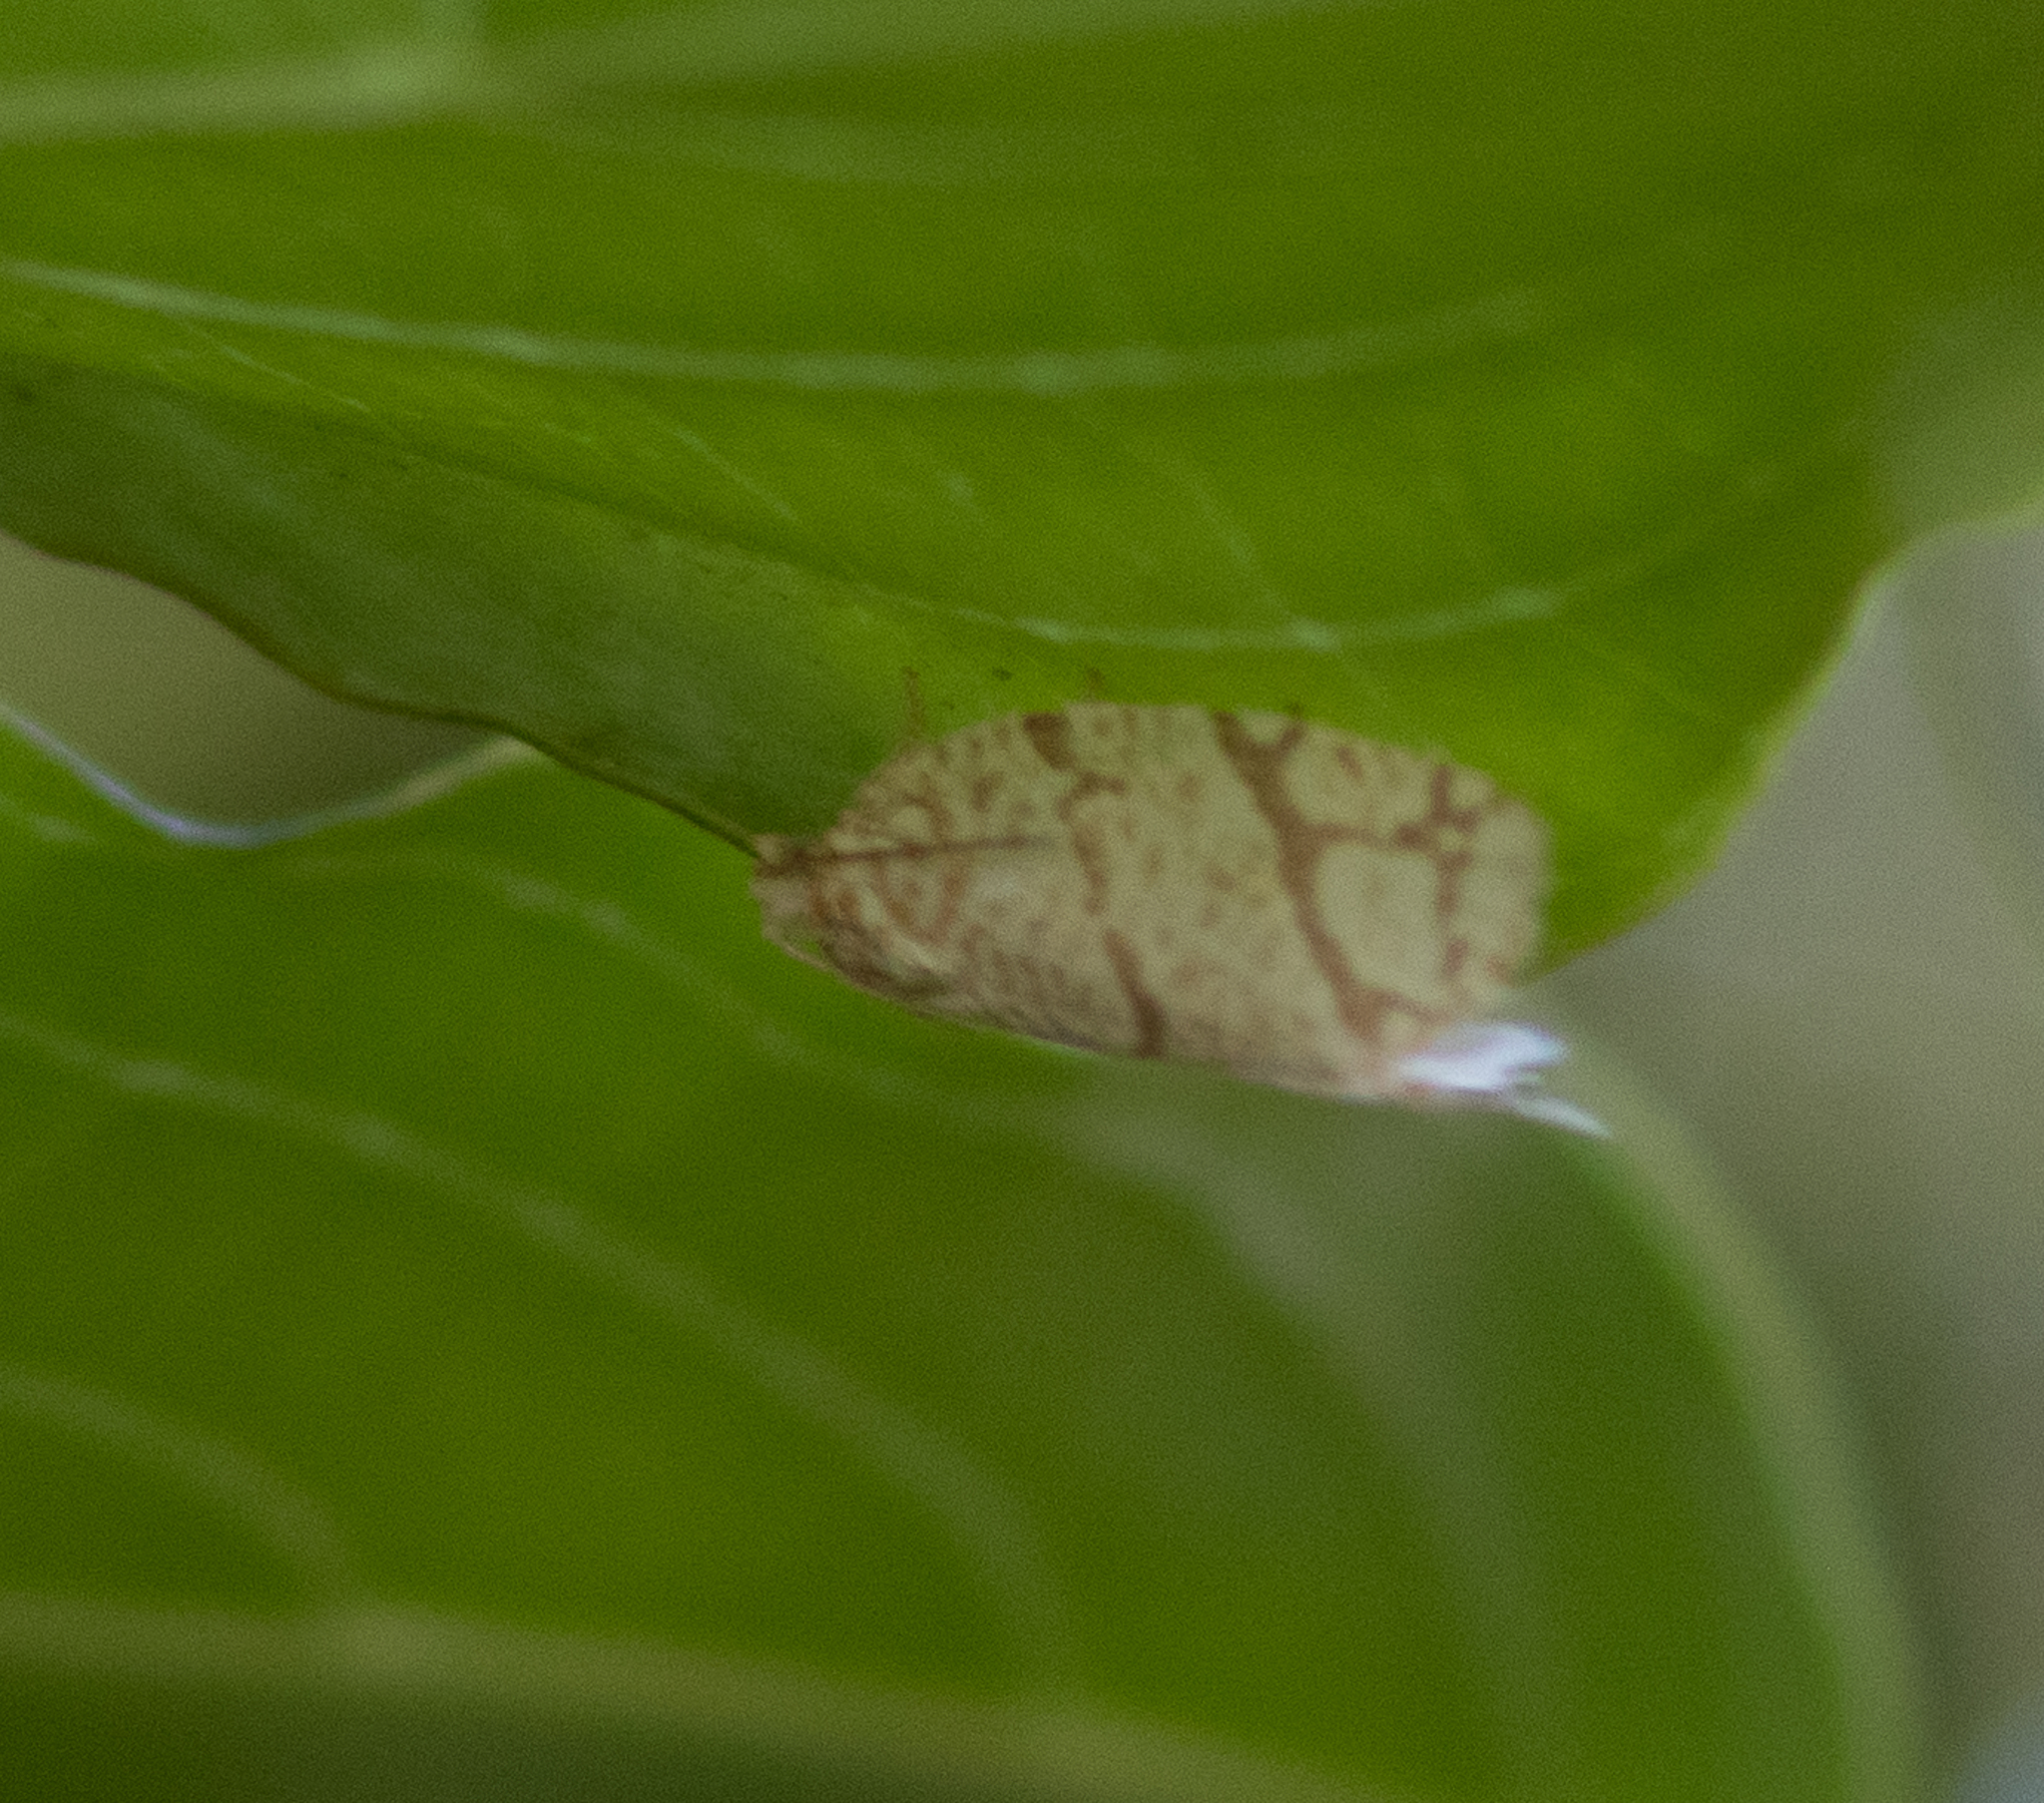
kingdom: Animalia
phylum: Arthropoda
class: Insecta
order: Lepidoptera
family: Tortricidae
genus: Argyrotaenia
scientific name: Argyrotaenia quercifoliana
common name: Yellow-winged oak leafroller moth
